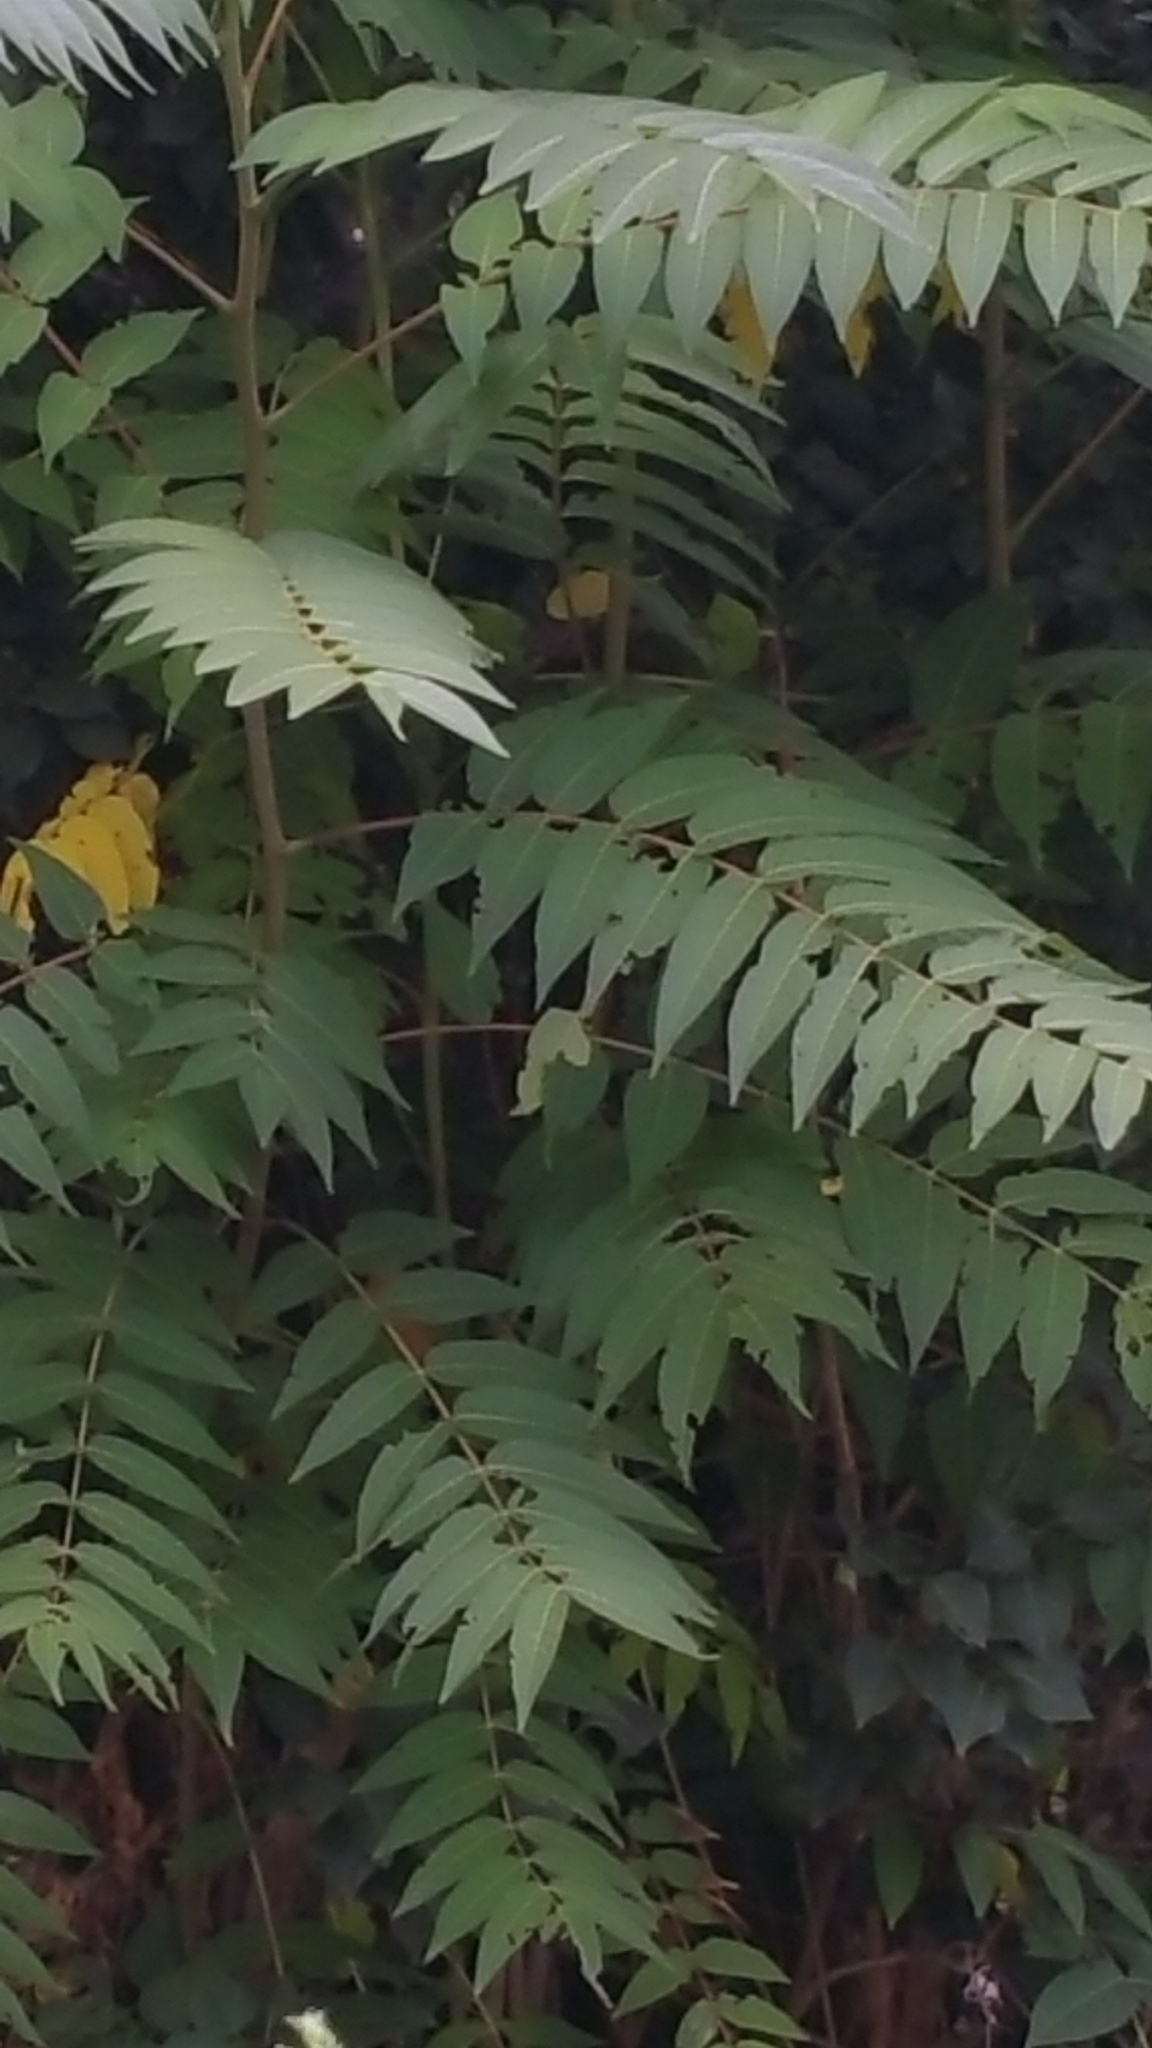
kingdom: Plantae
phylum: Tracheophyta
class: Magnoliopsida
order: Sapindales
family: Simaroubaceae
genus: Ailanthus
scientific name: Ailanthus altissima
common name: Tree-of-heaven
